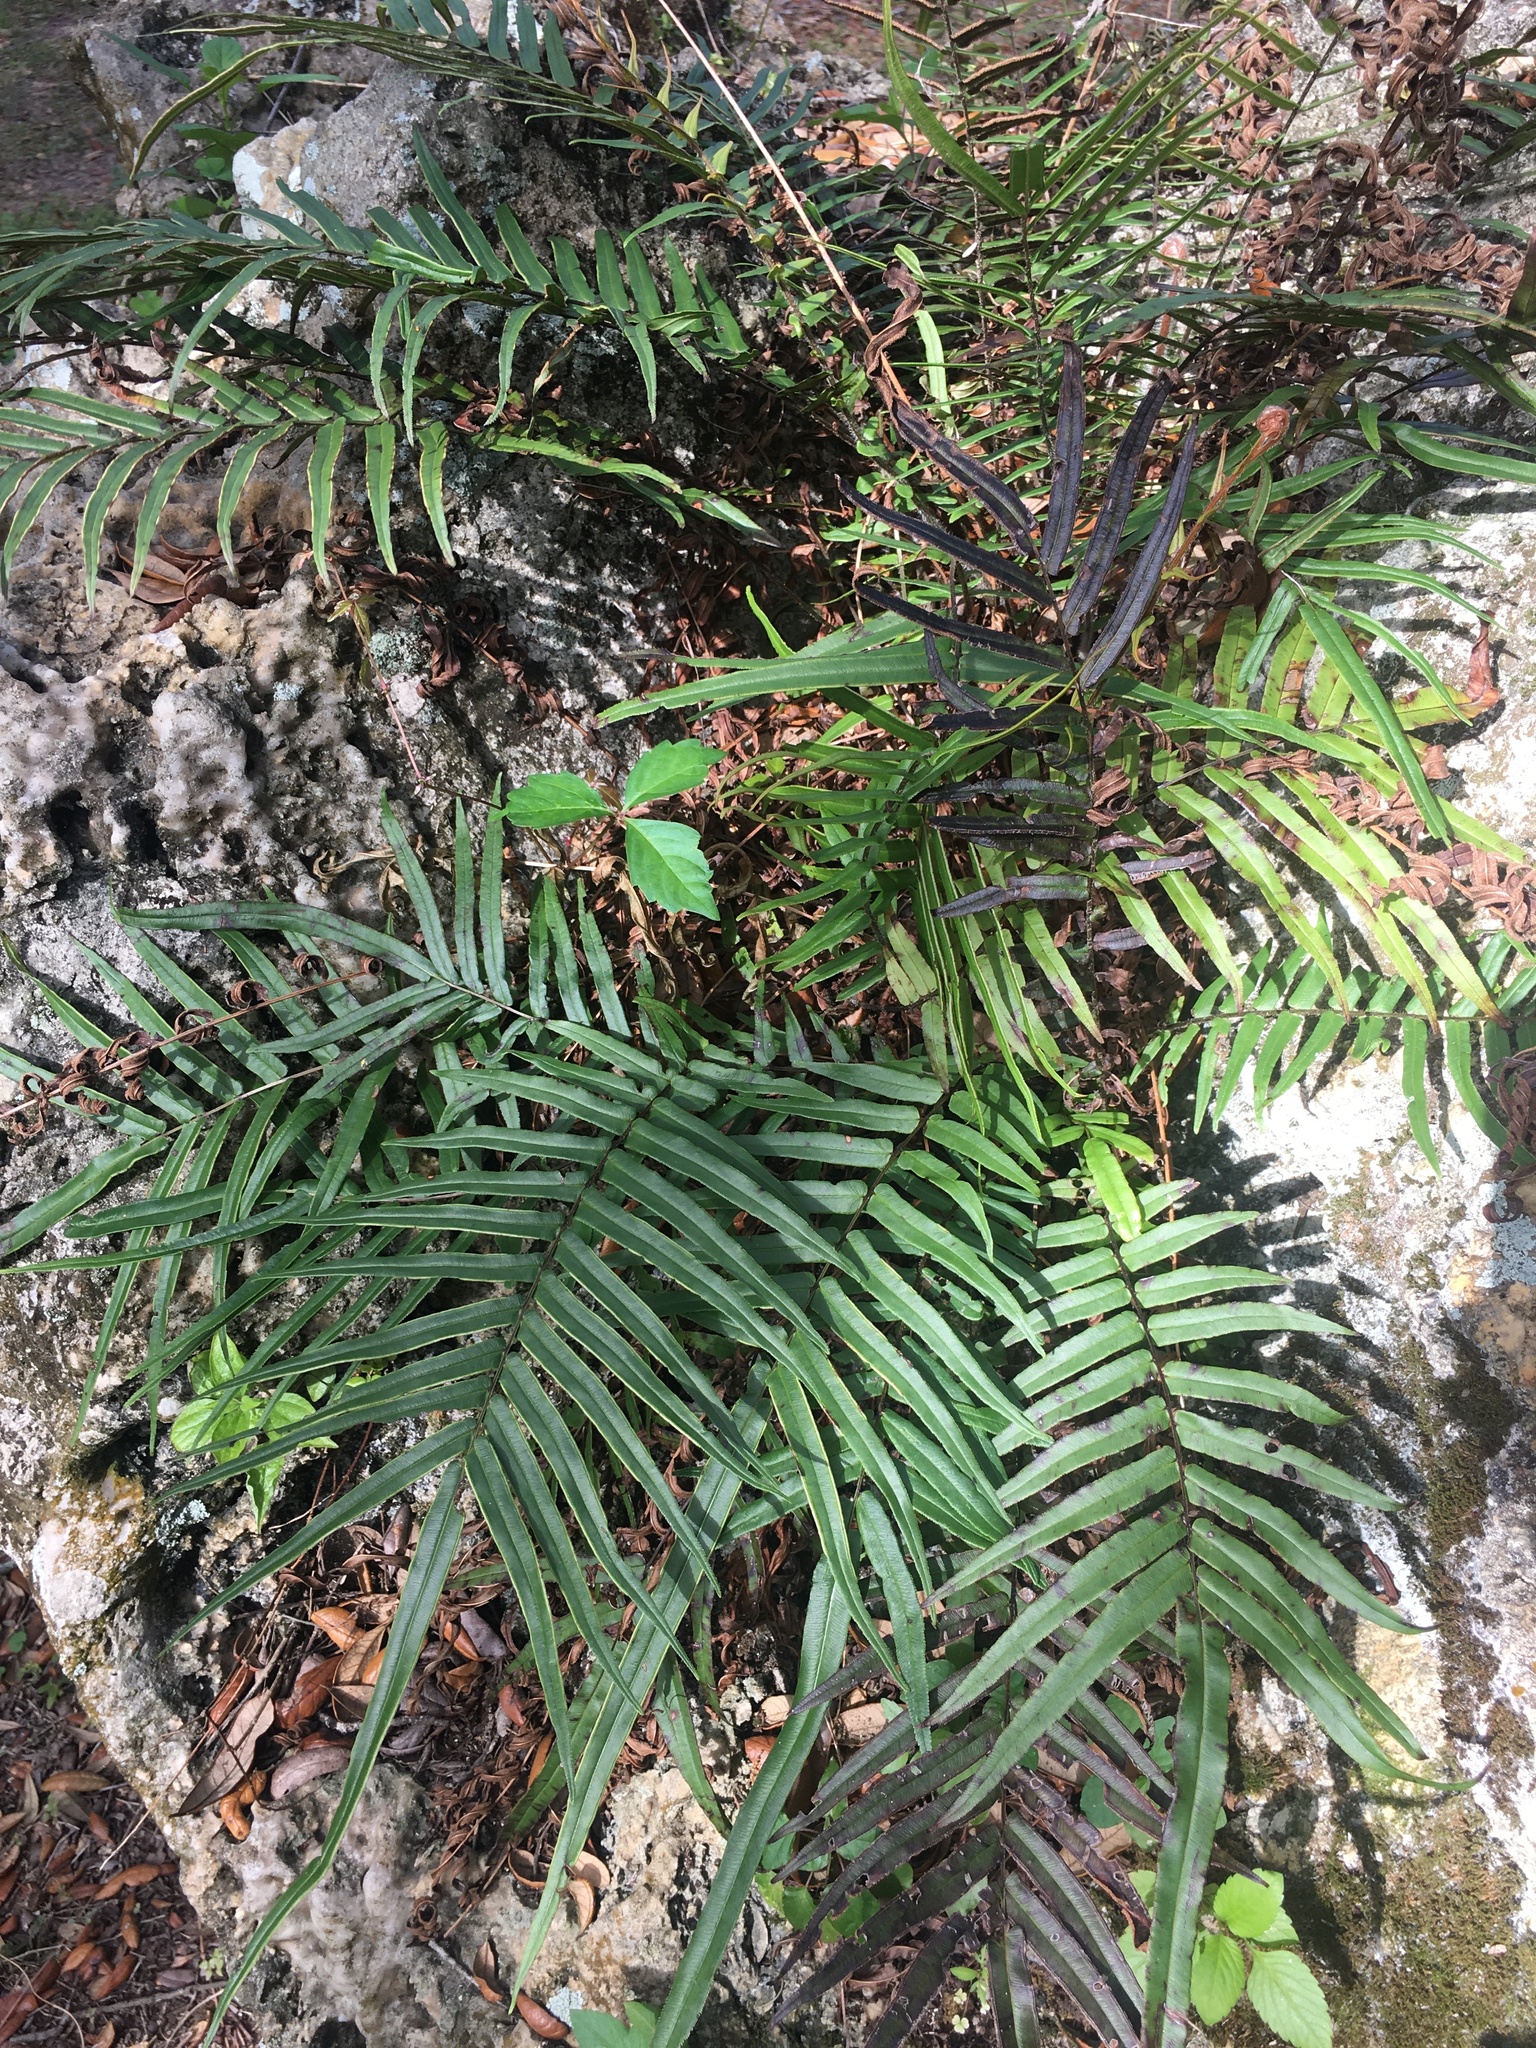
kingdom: Plantae
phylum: Tracheophyta
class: Polypodiopsida
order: Polypodiales
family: Pteridaceae
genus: Pteris
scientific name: Pteris vittata
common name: Ladder brake
